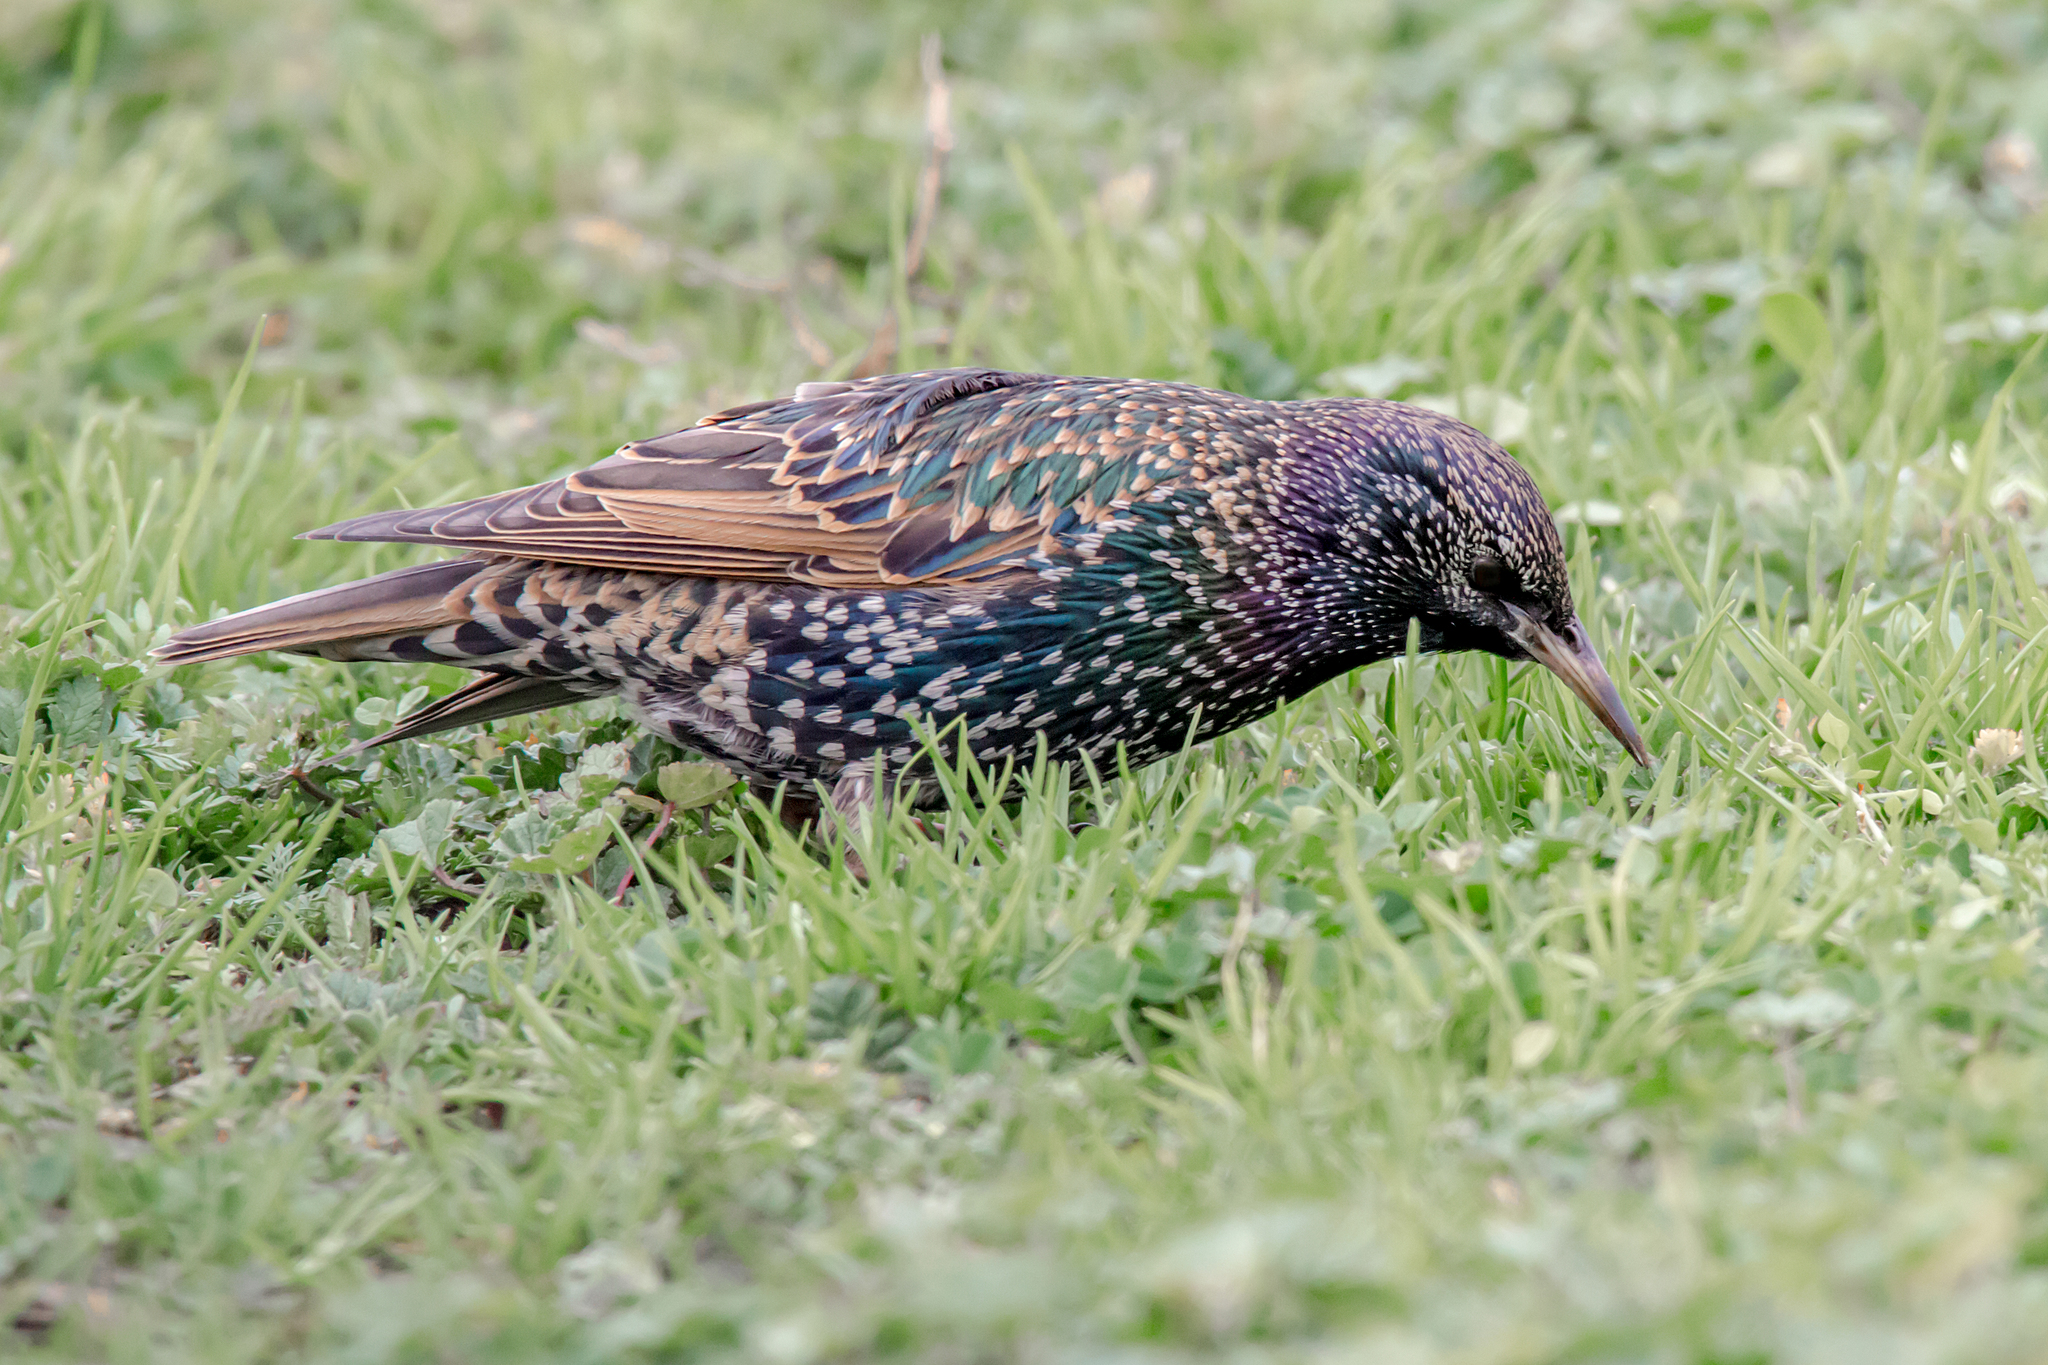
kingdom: Animalia
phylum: Chordata
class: Aves
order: Passeriformes
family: Sturnidae
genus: Sturnus
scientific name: Sturnus vulgaris
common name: Common starling
